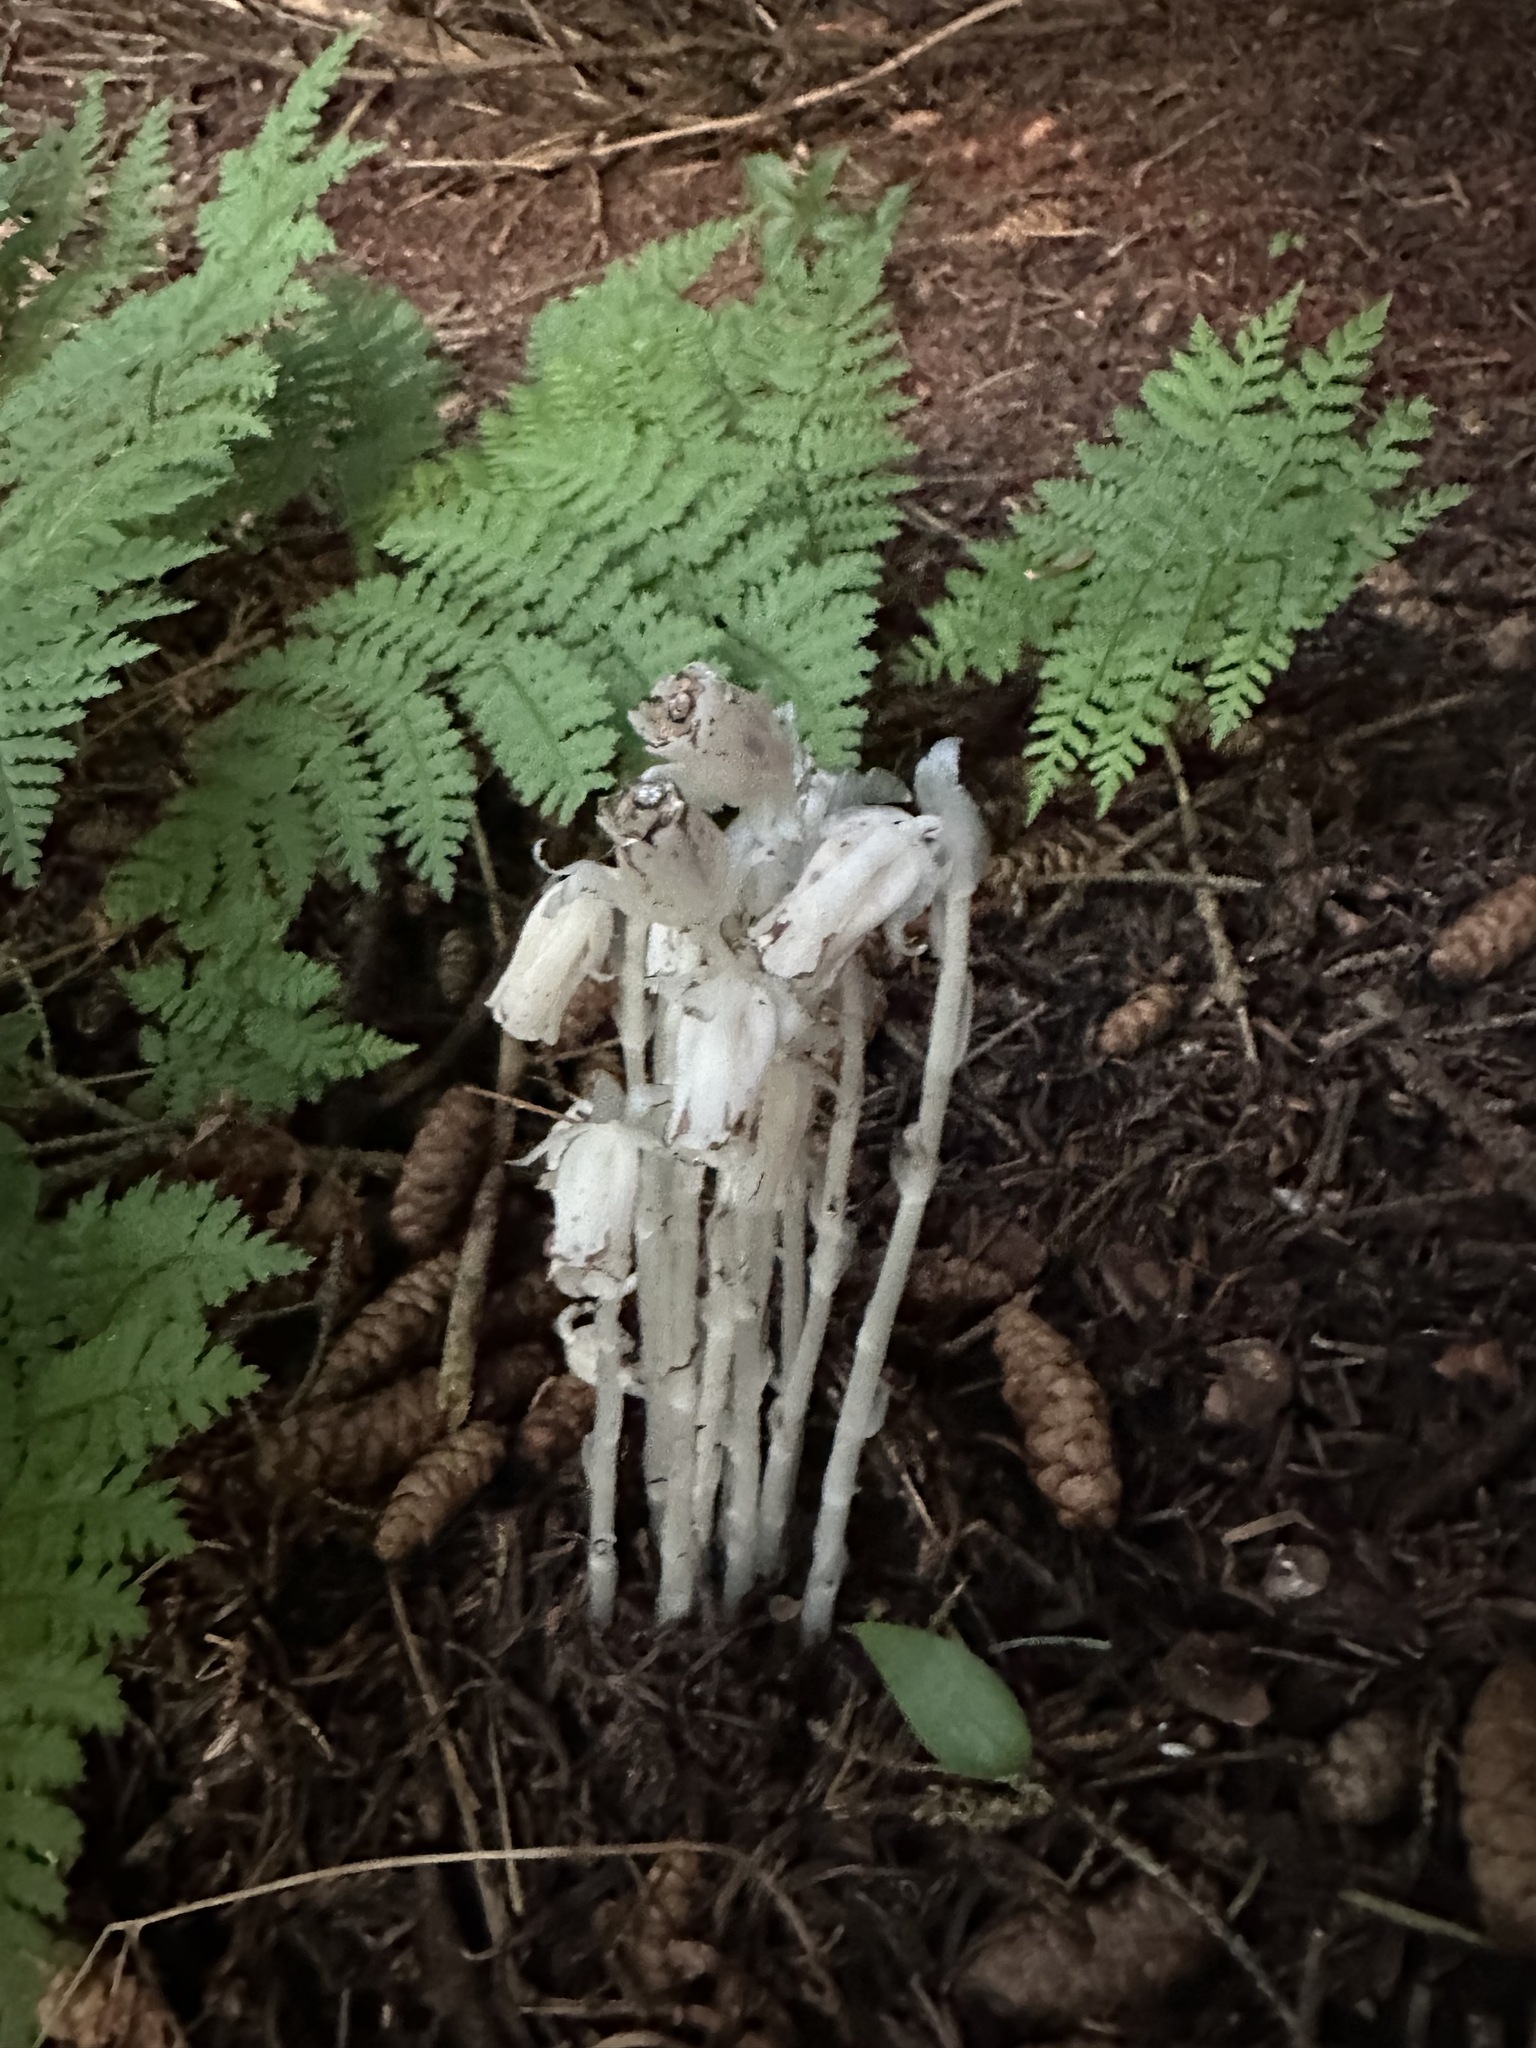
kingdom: Plantae
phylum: Tracheophyta
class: Magnoliopsida
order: Ericales
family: Ericaceae
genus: Monotropa
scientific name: Monotropa uniflora
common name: Convulsion root
